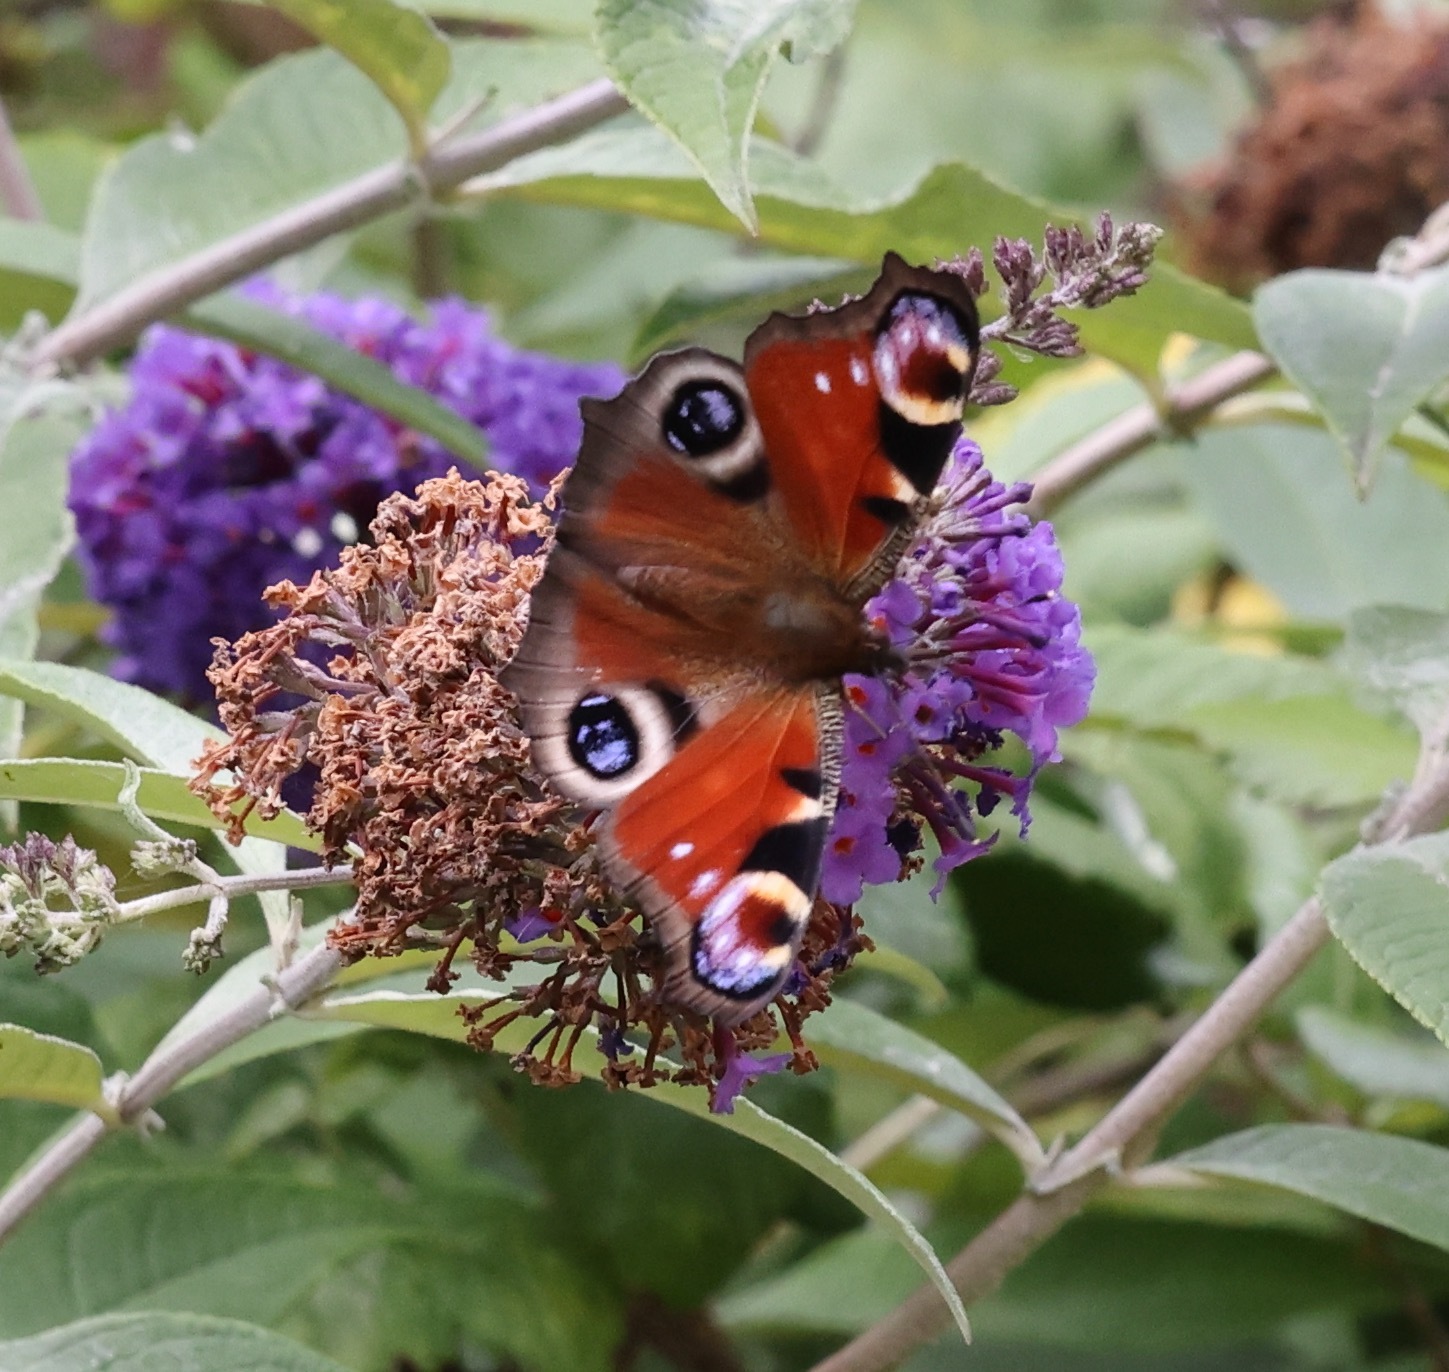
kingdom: Animalia
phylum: Arthropoda
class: Insecta
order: Lepidoptera
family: Nymphalidae
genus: Aglais
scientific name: Aglais io
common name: Peacock
